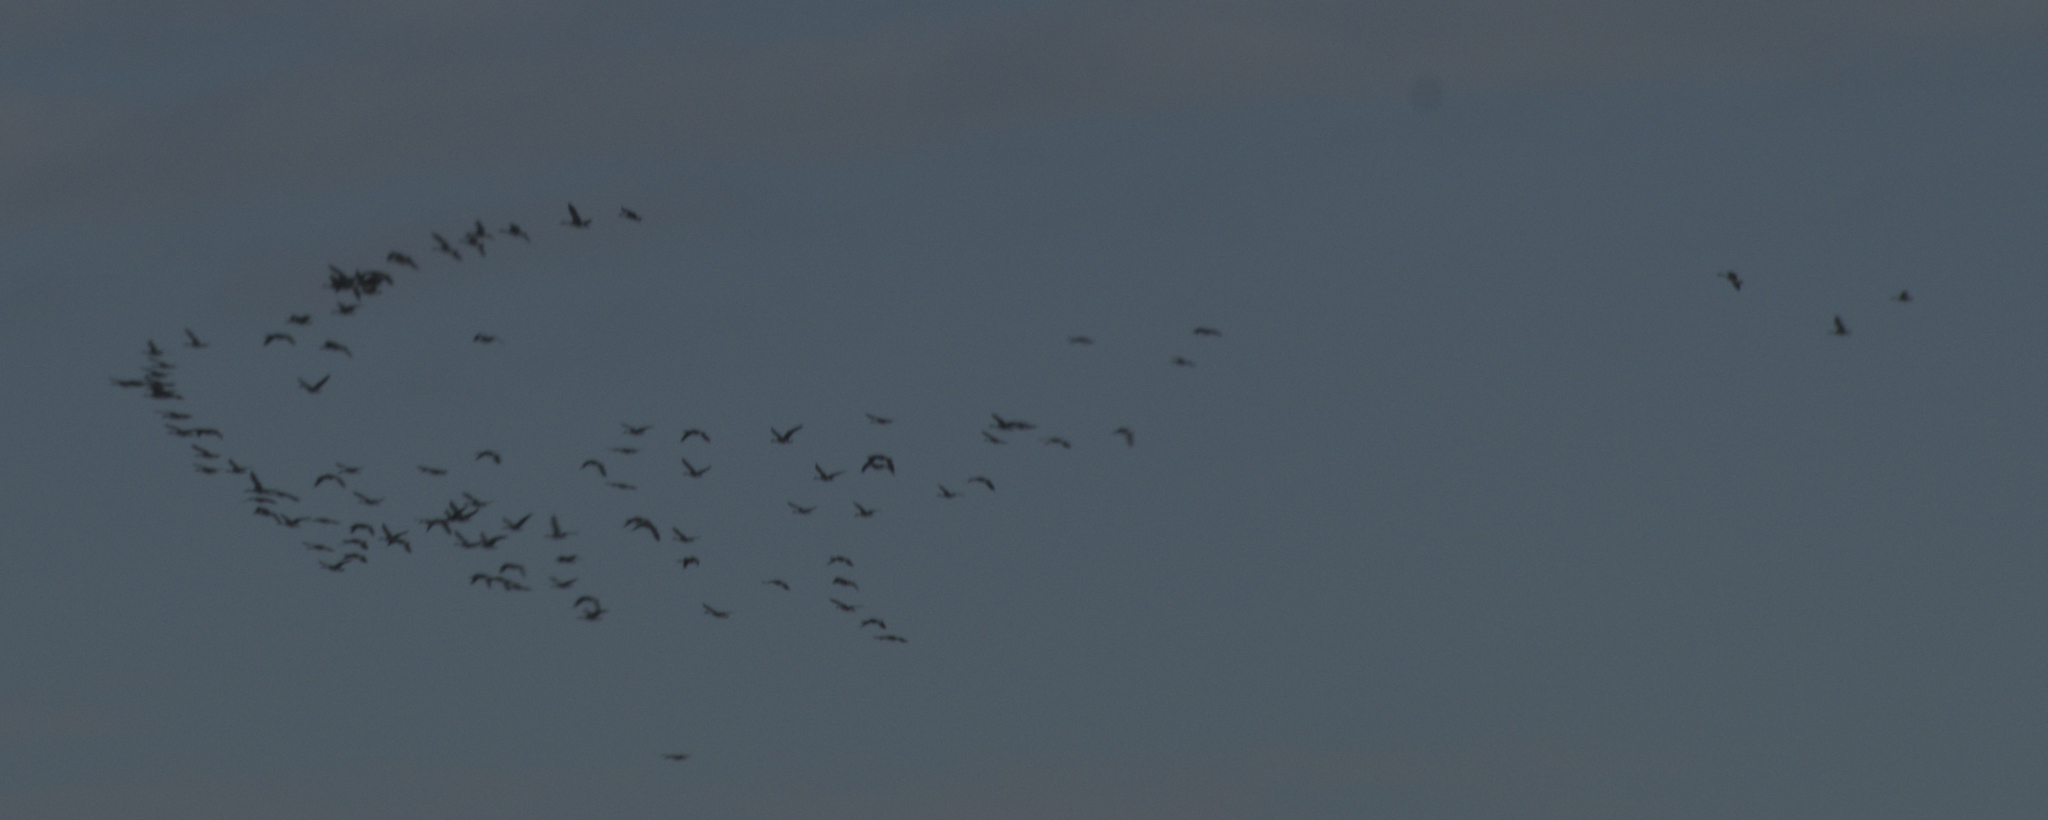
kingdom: Animalia
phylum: Chordata
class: Aves
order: Anseriformes
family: Anatidae
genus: Branta
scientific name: Branta canadensis
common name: Canada goose
